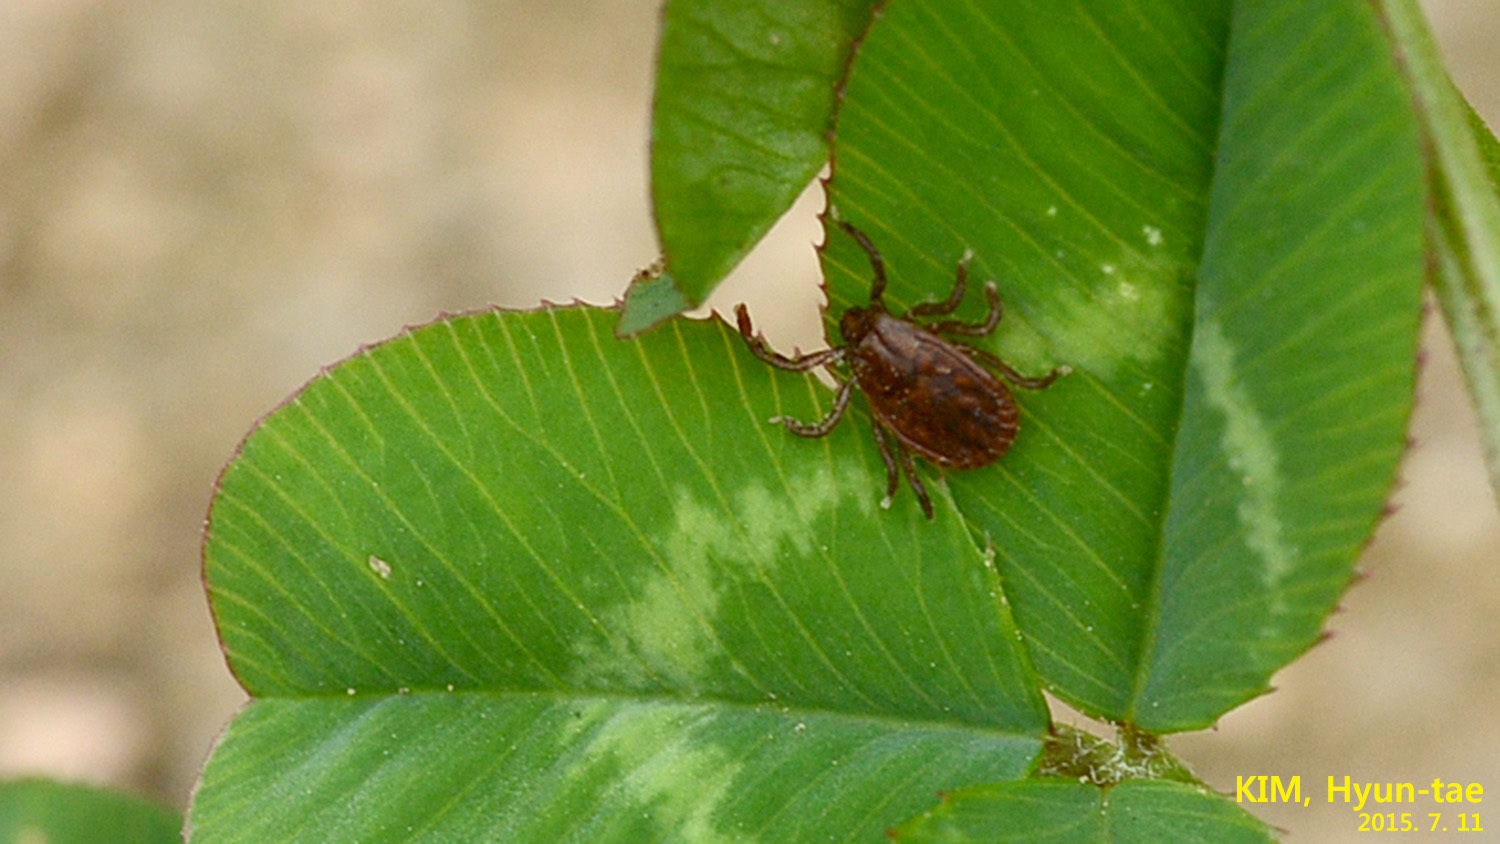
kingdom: Animalia
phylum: Arthropoda
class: Arachnida
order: Ixodida
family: Ixodidae
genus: Haemaphysalis
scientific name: Haemaphysalis longicornis
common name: Bush tick
